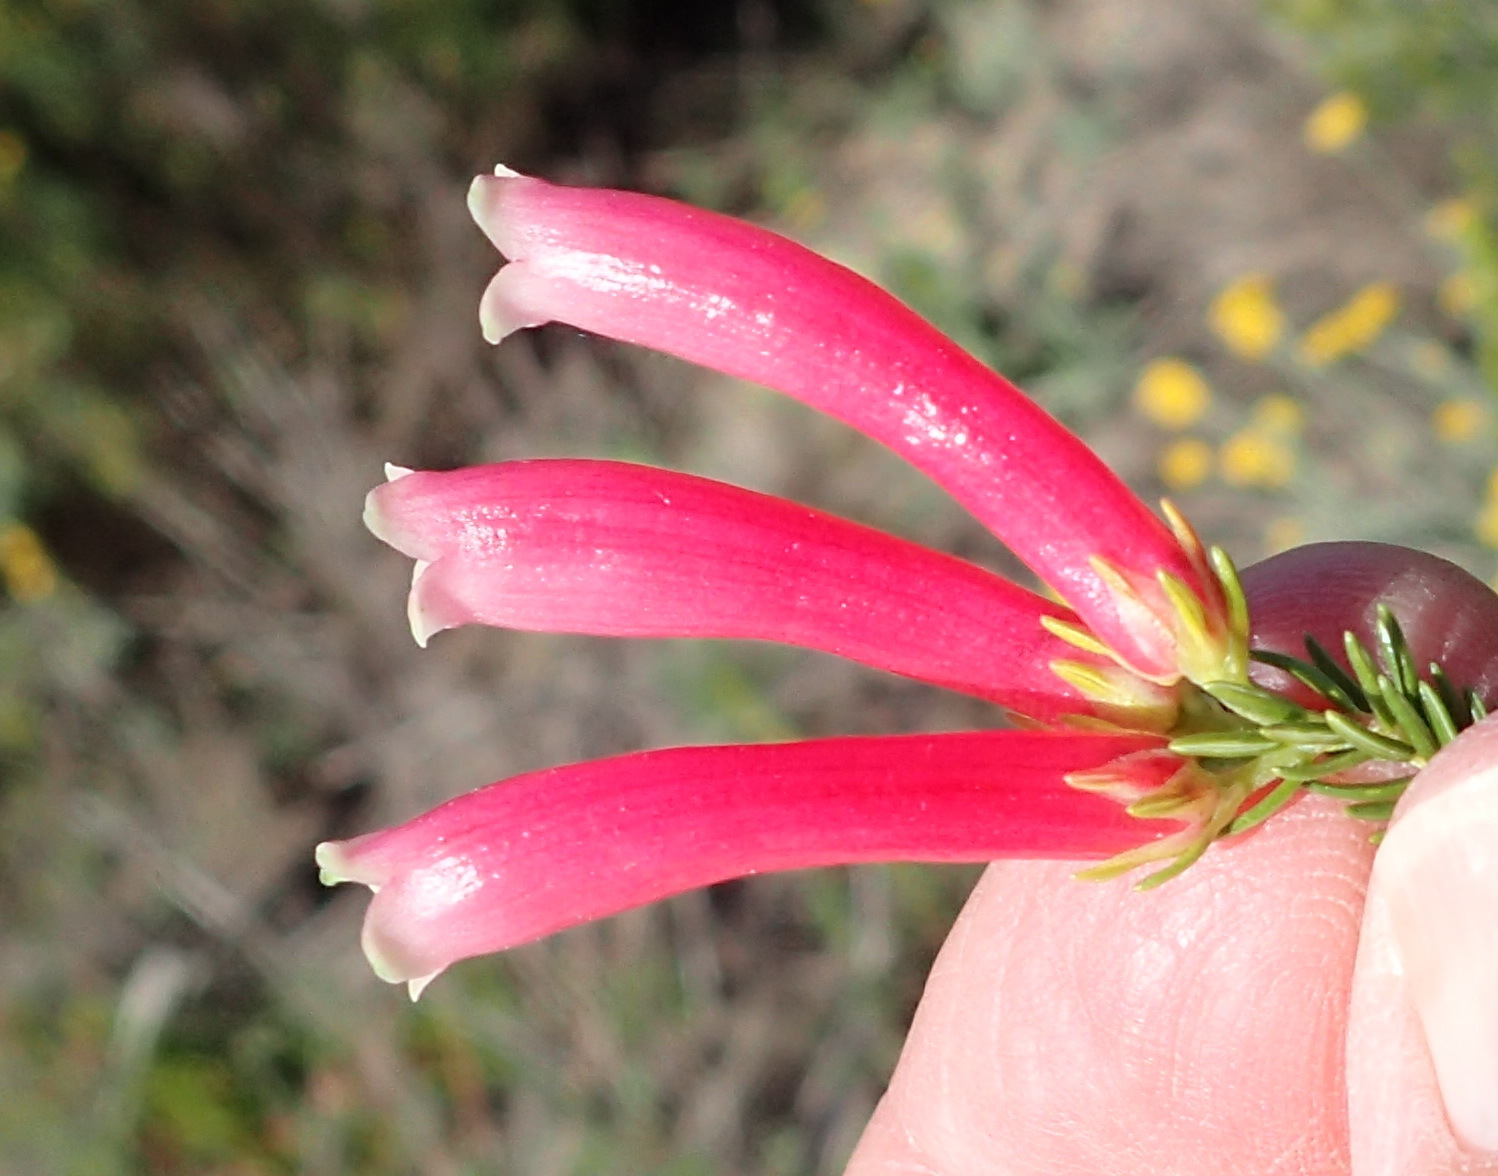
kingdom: Plantae
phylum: Tracheophyta
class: Magnoliopsida
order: Ericales
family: Ericaceae
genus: Erica
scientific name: Erica discolor
